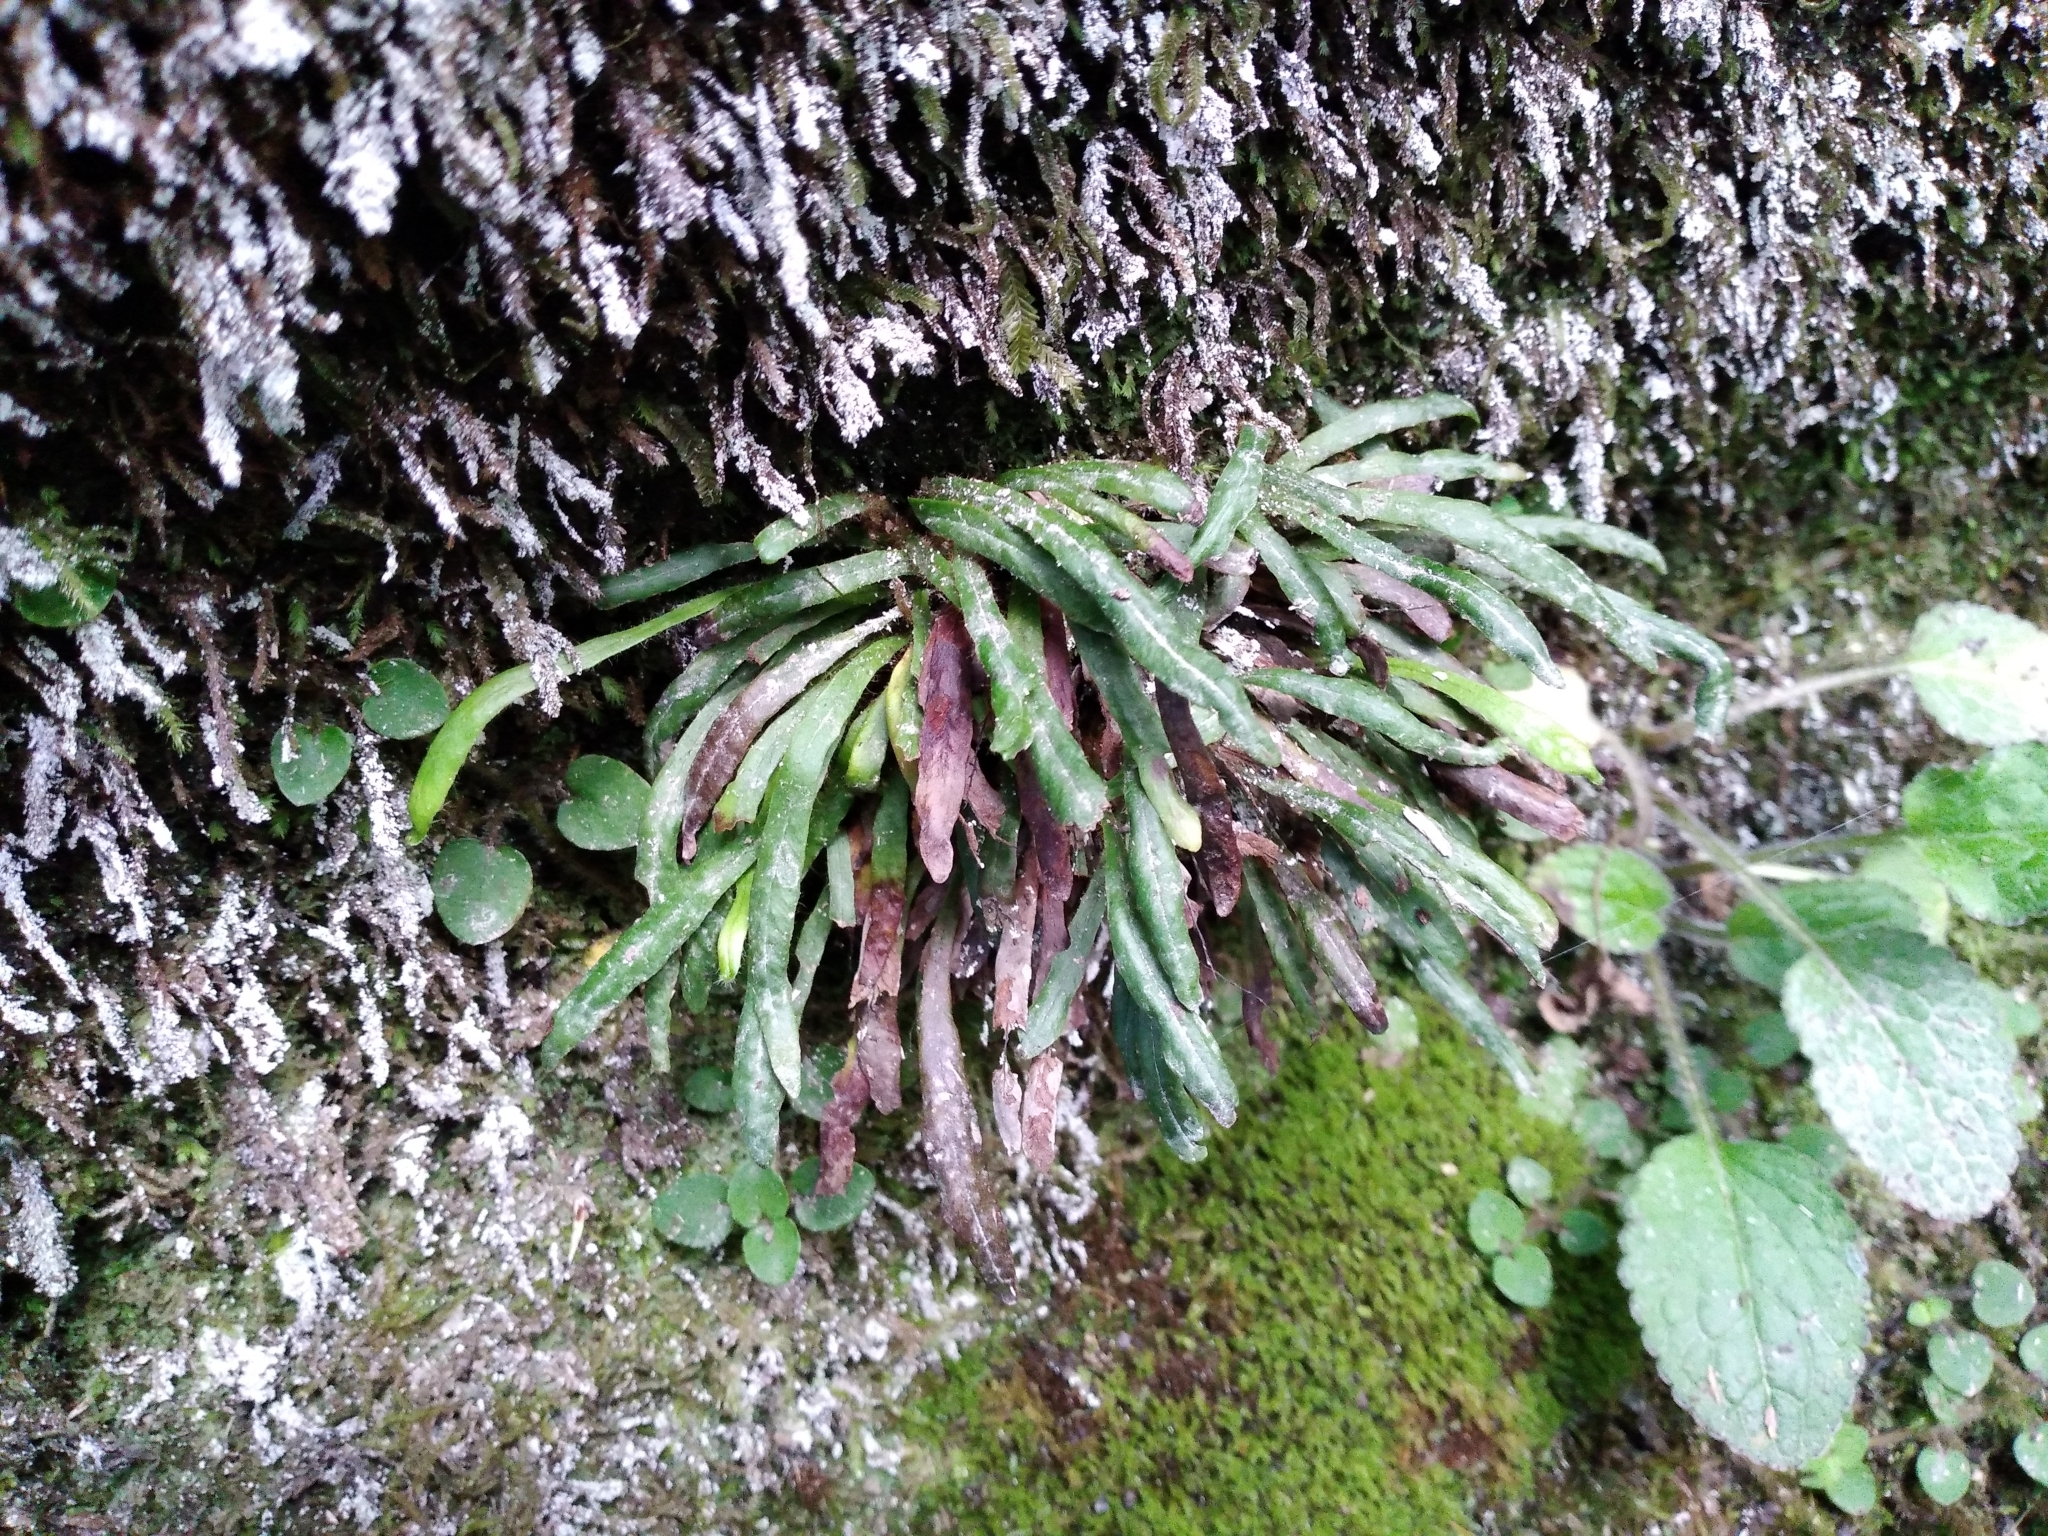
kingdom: Plantae
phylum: Tracheophyta
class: Polypodiopsida
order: Polypodiales
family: Polypodiaceae
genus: Notogrammitis
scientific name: Notogrammitis patagonica
